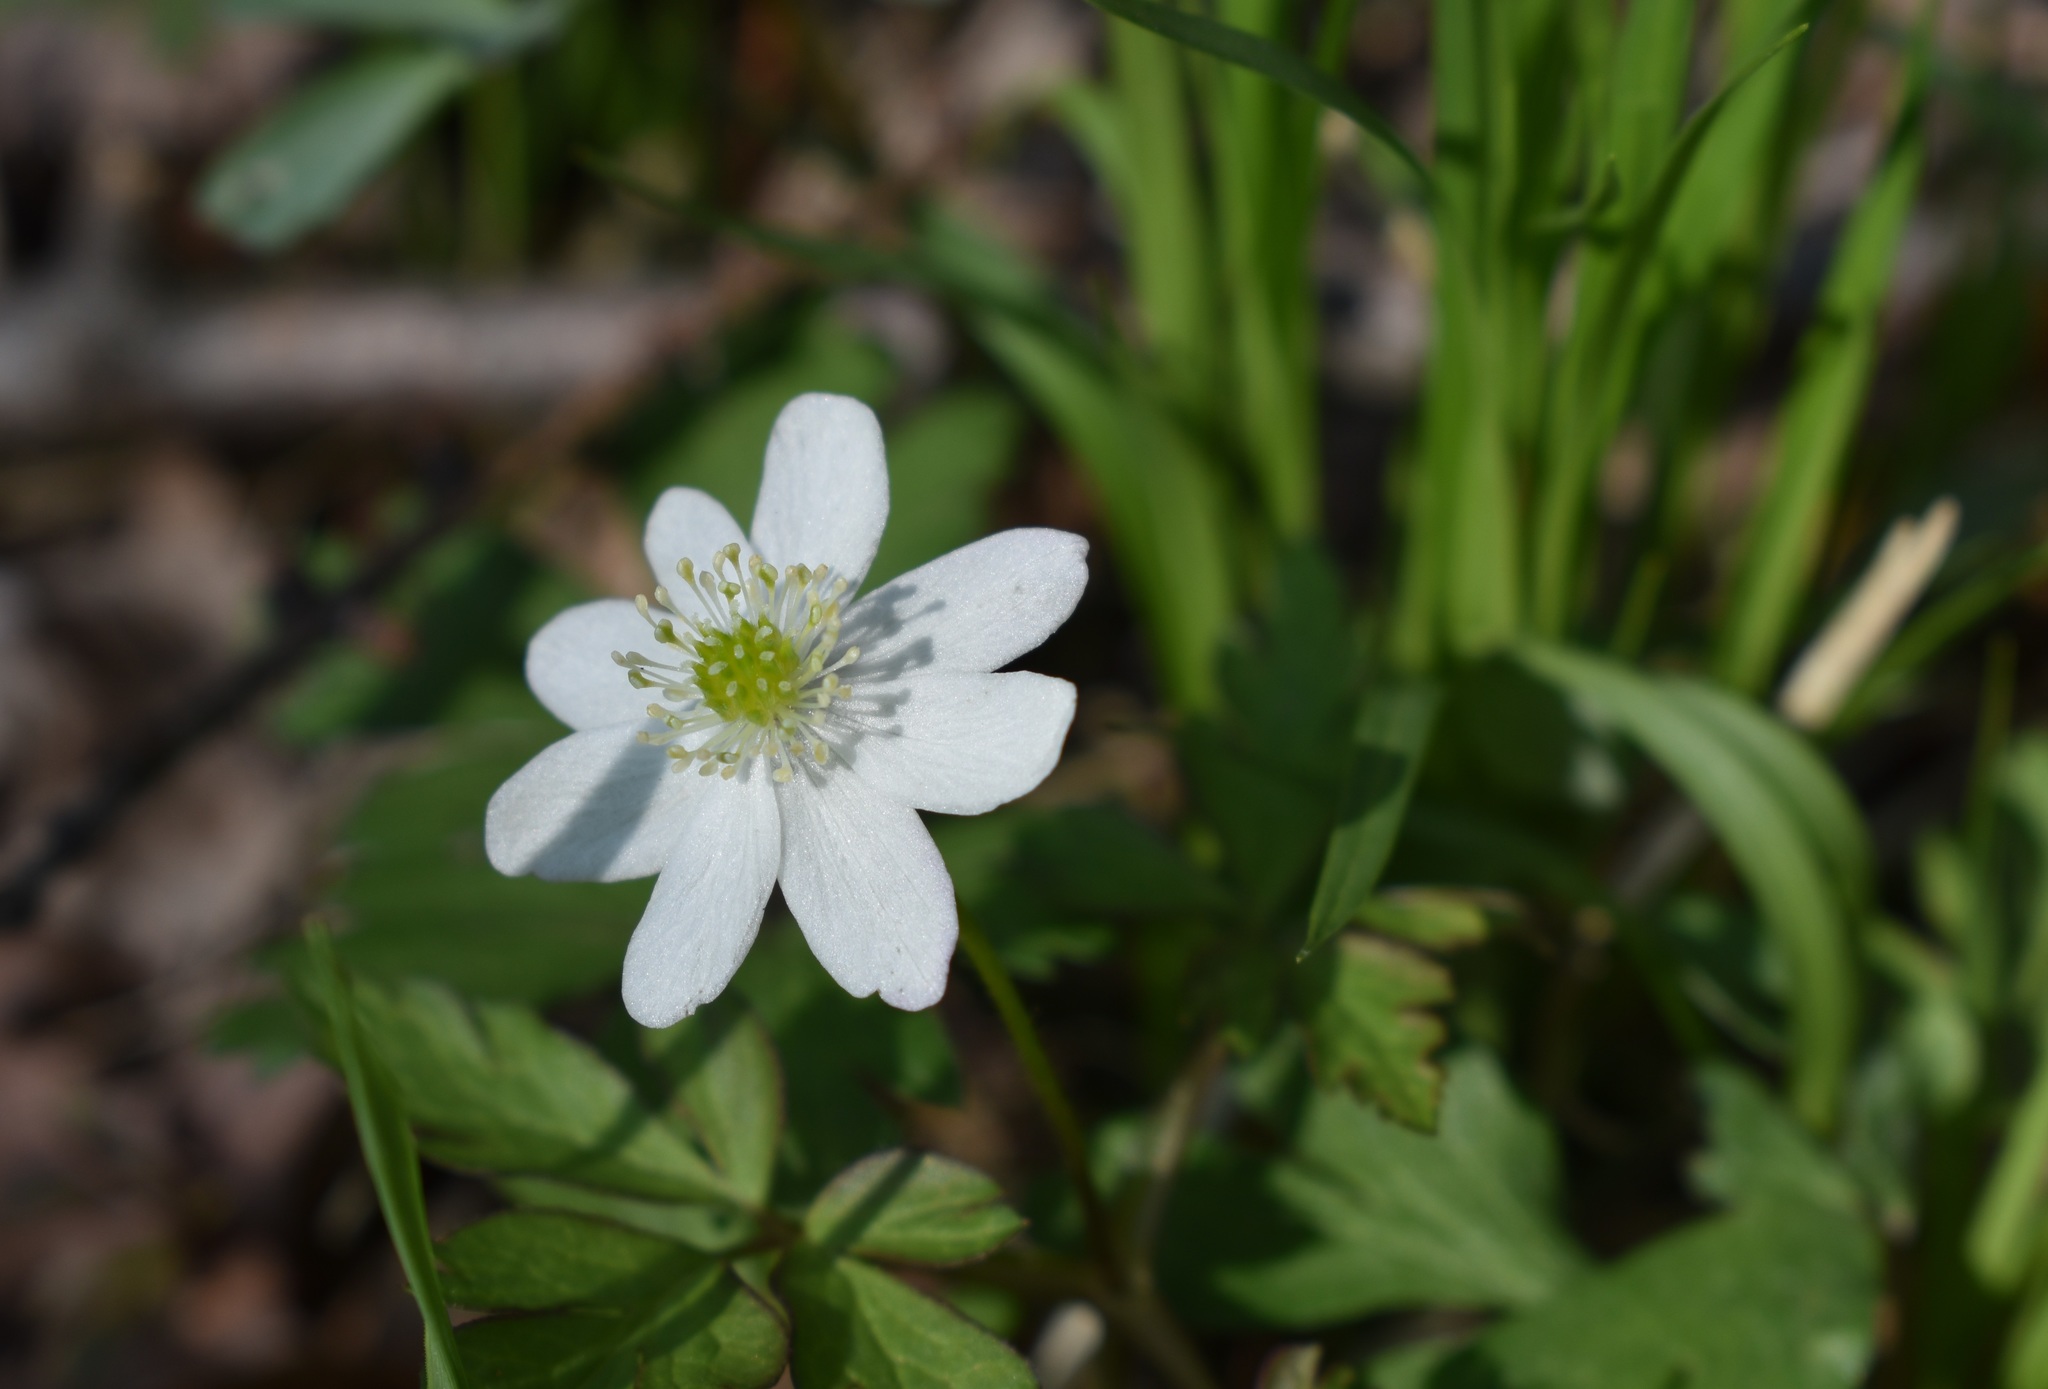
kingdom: Plantae
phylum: Tracheophyta
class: Magnoliopsida
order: Ranunculales
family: Ranunculaceae
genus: Anemone
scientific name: Anemone amurensis
